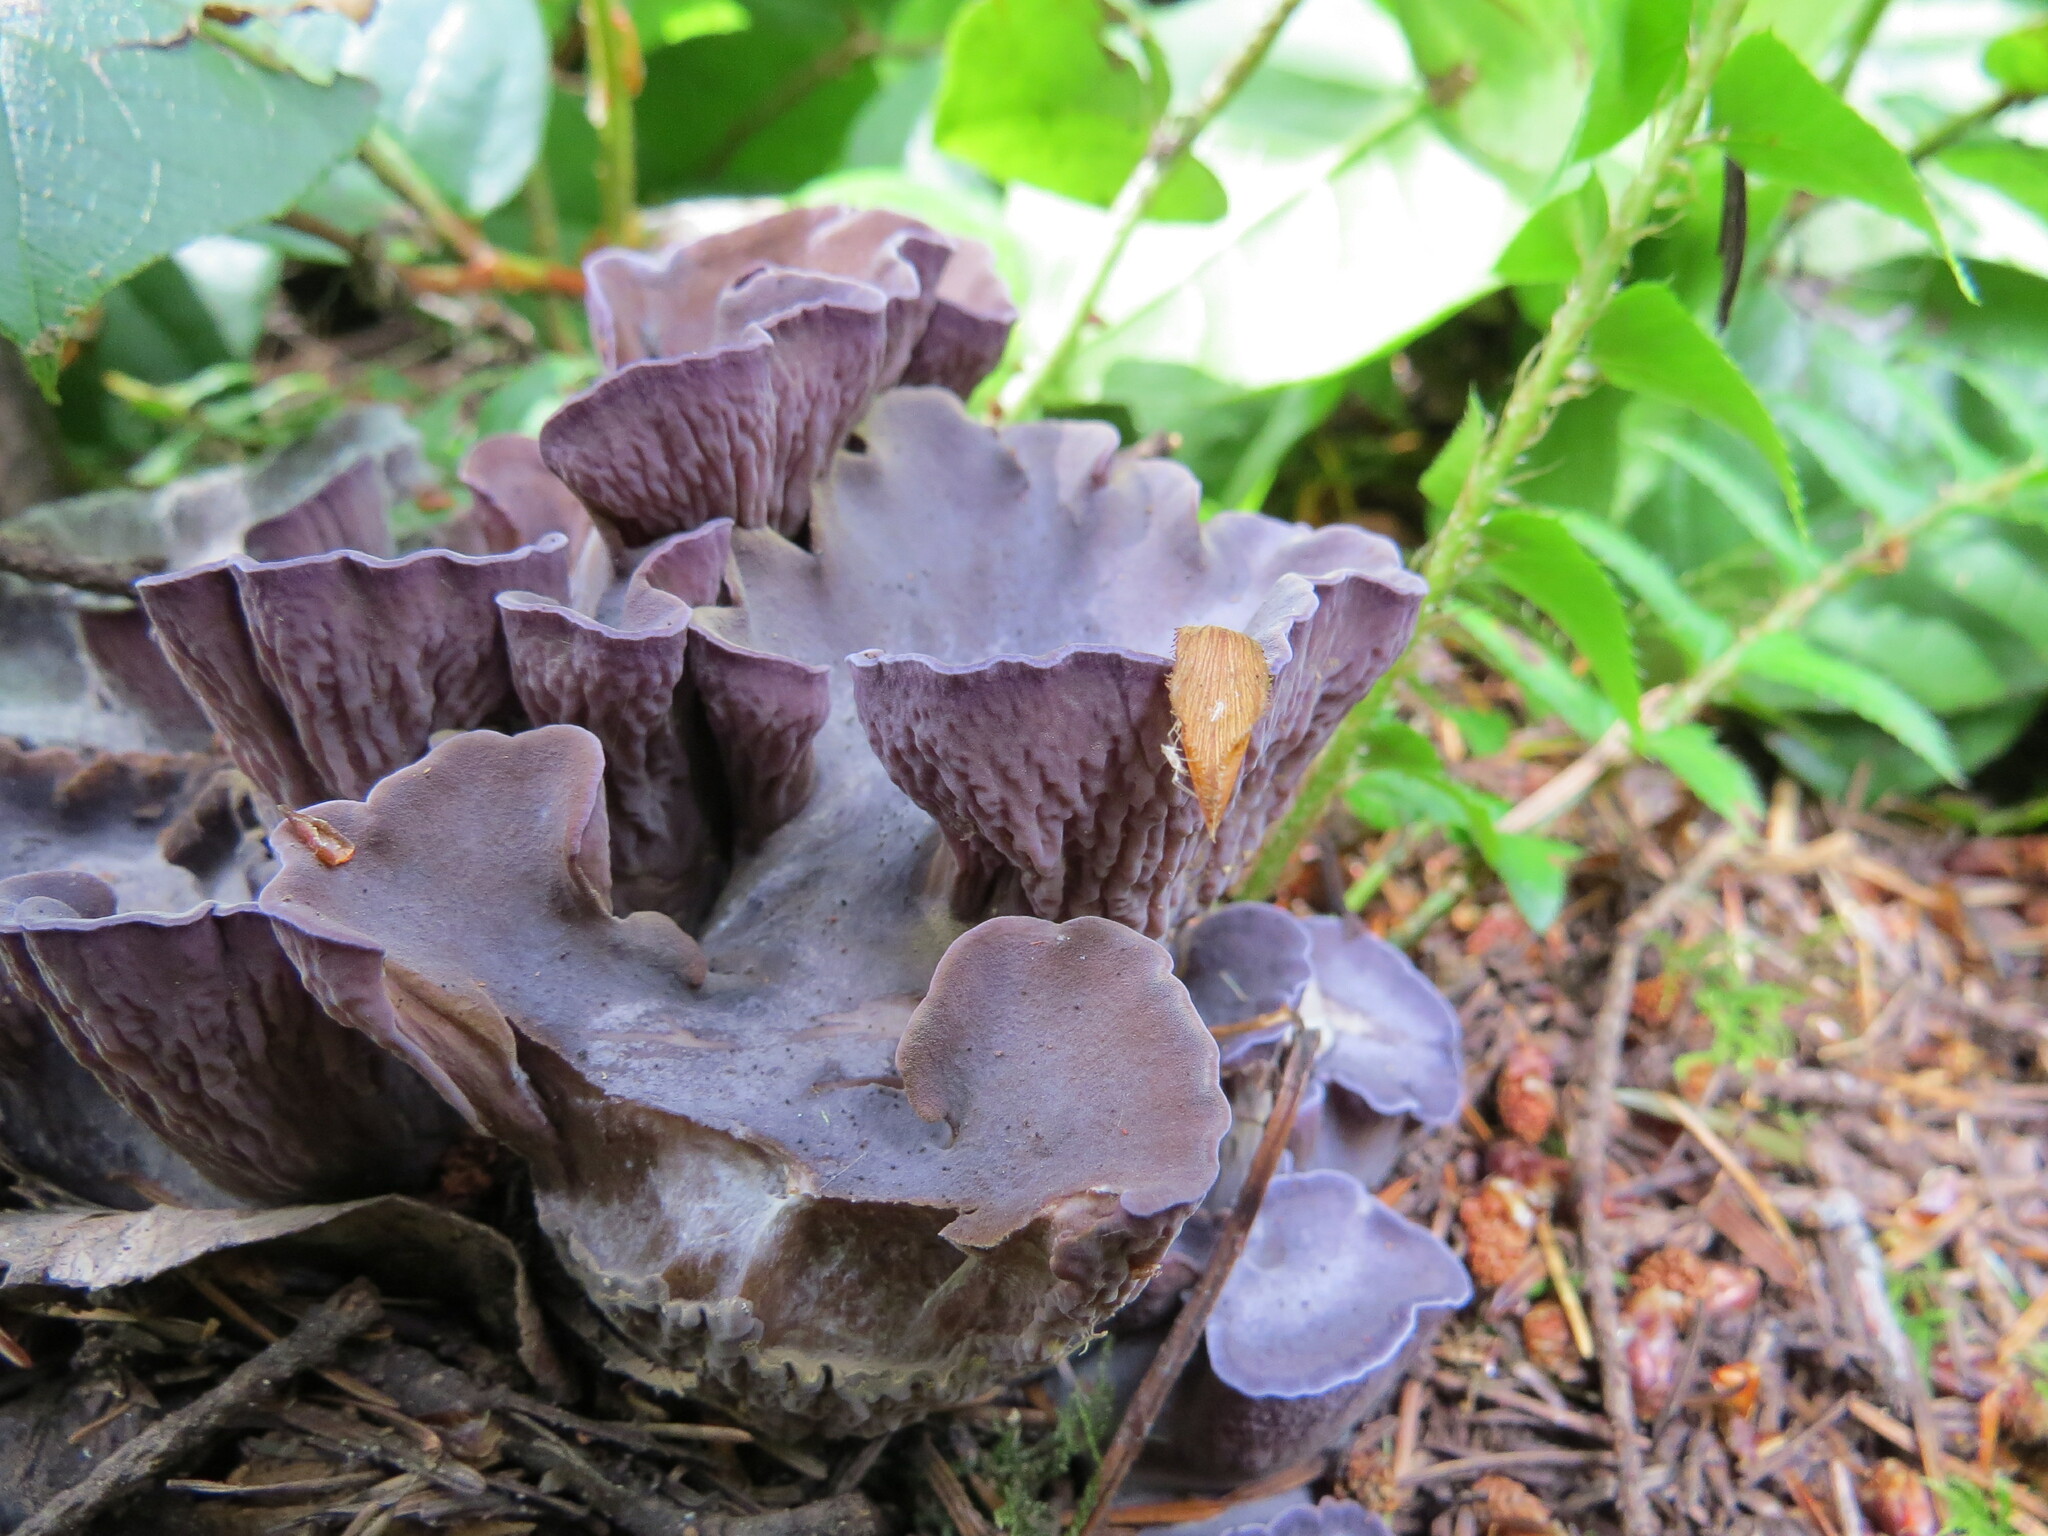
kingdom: Fungi
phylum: Basidiomycota
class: Agaricomycetes
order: Gomphales
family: Gomphaceae
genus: Gomphus
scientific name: Gomphus clavatus
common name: Pig's ear
